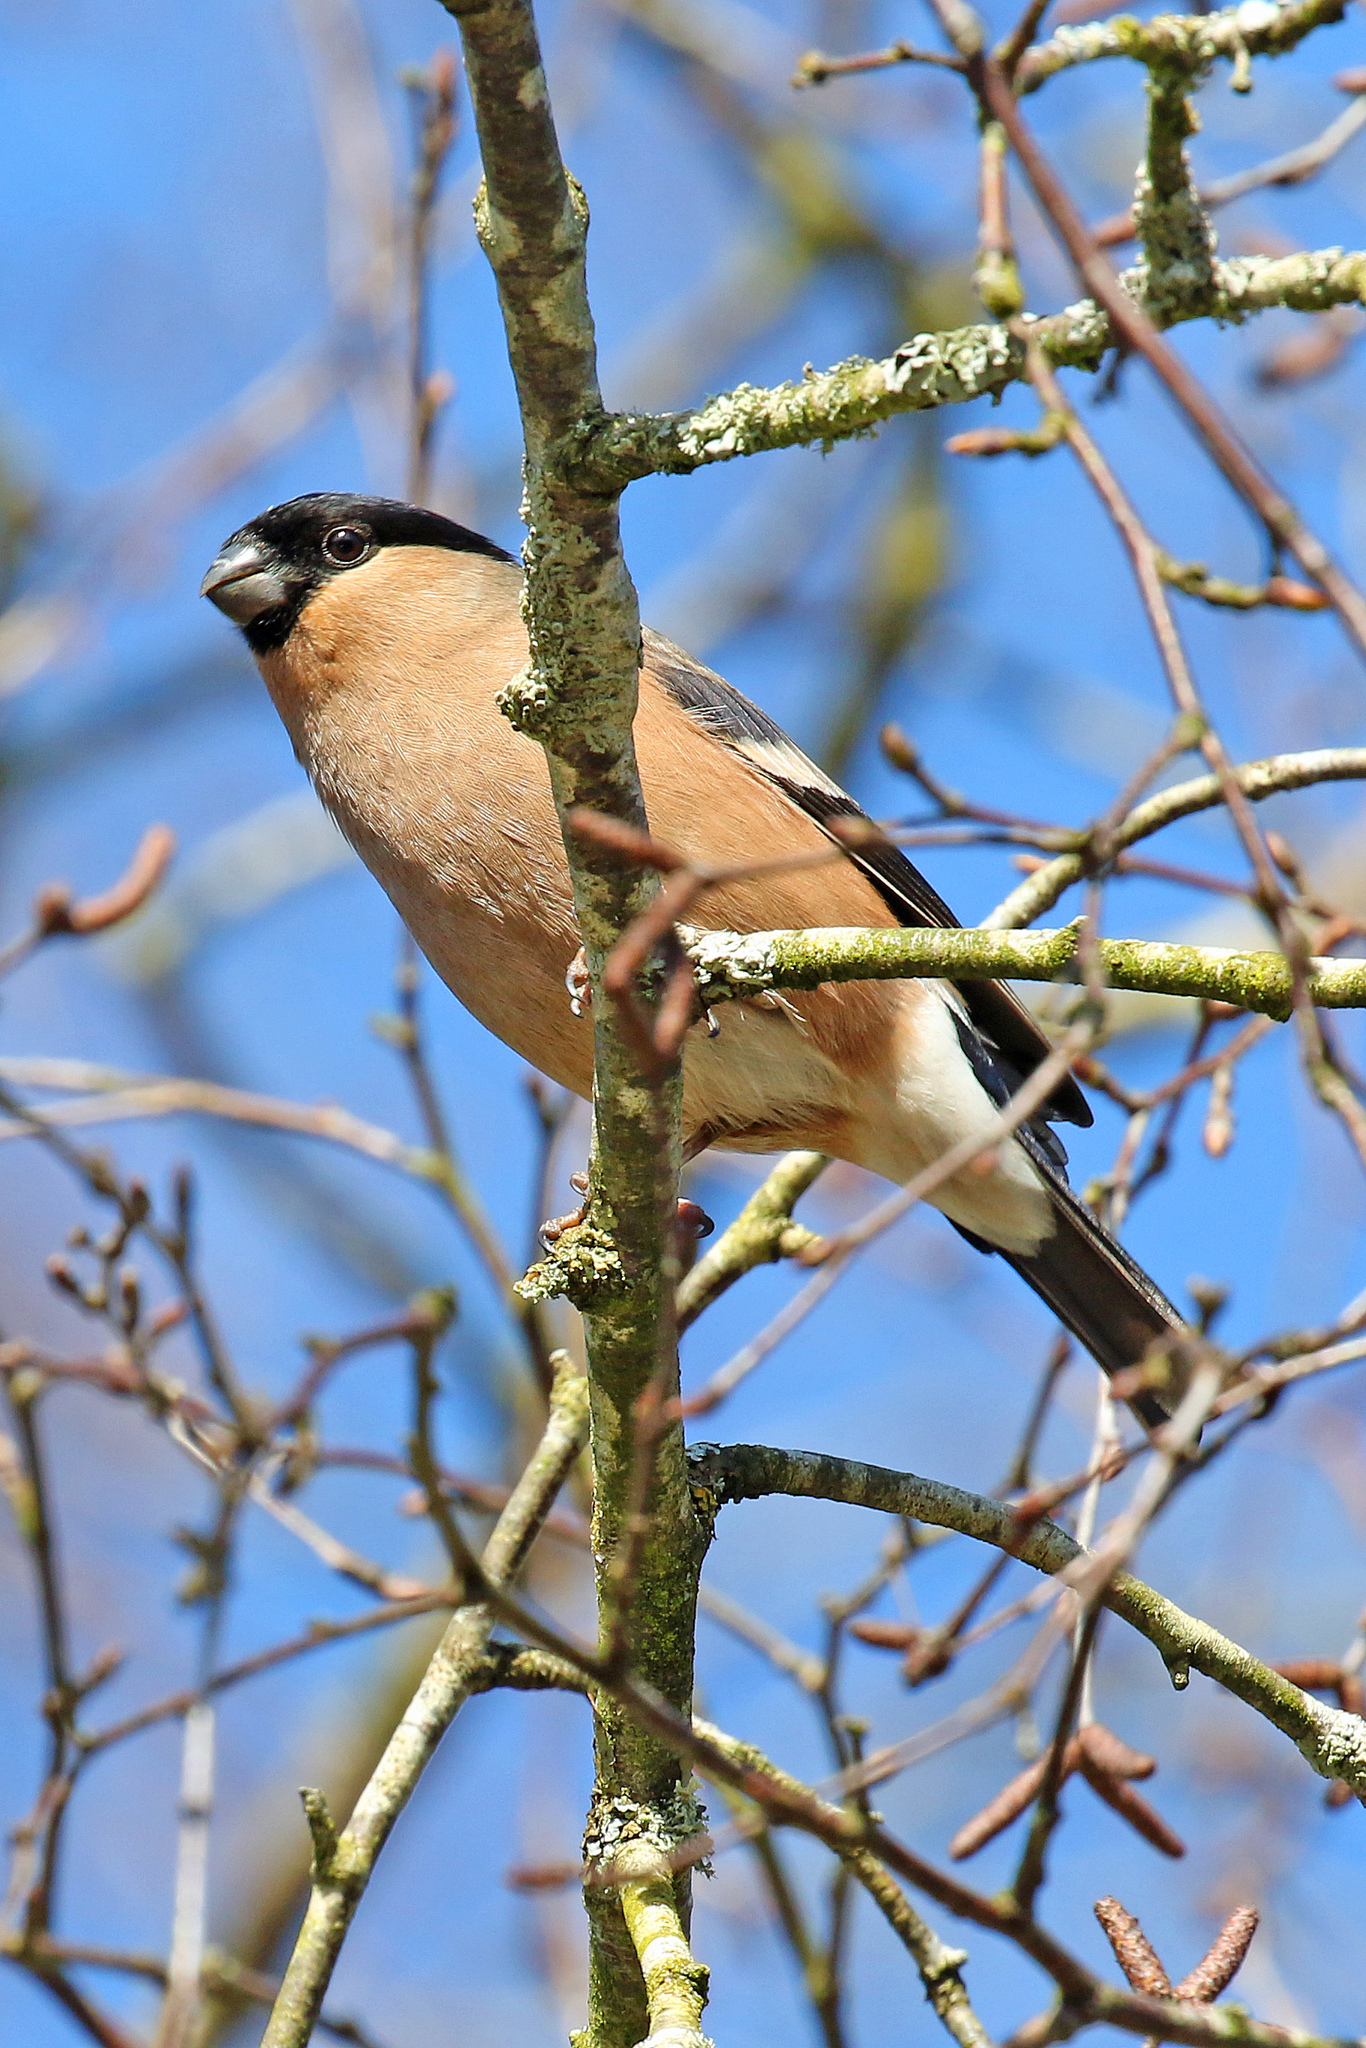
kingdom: Animalia
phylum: Chordata
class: Aves
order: Passeriformes
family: Fringillidae
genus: Pyrrhula
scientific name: Pyrrhula pyrrhula
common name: Eurasian bullfinch
